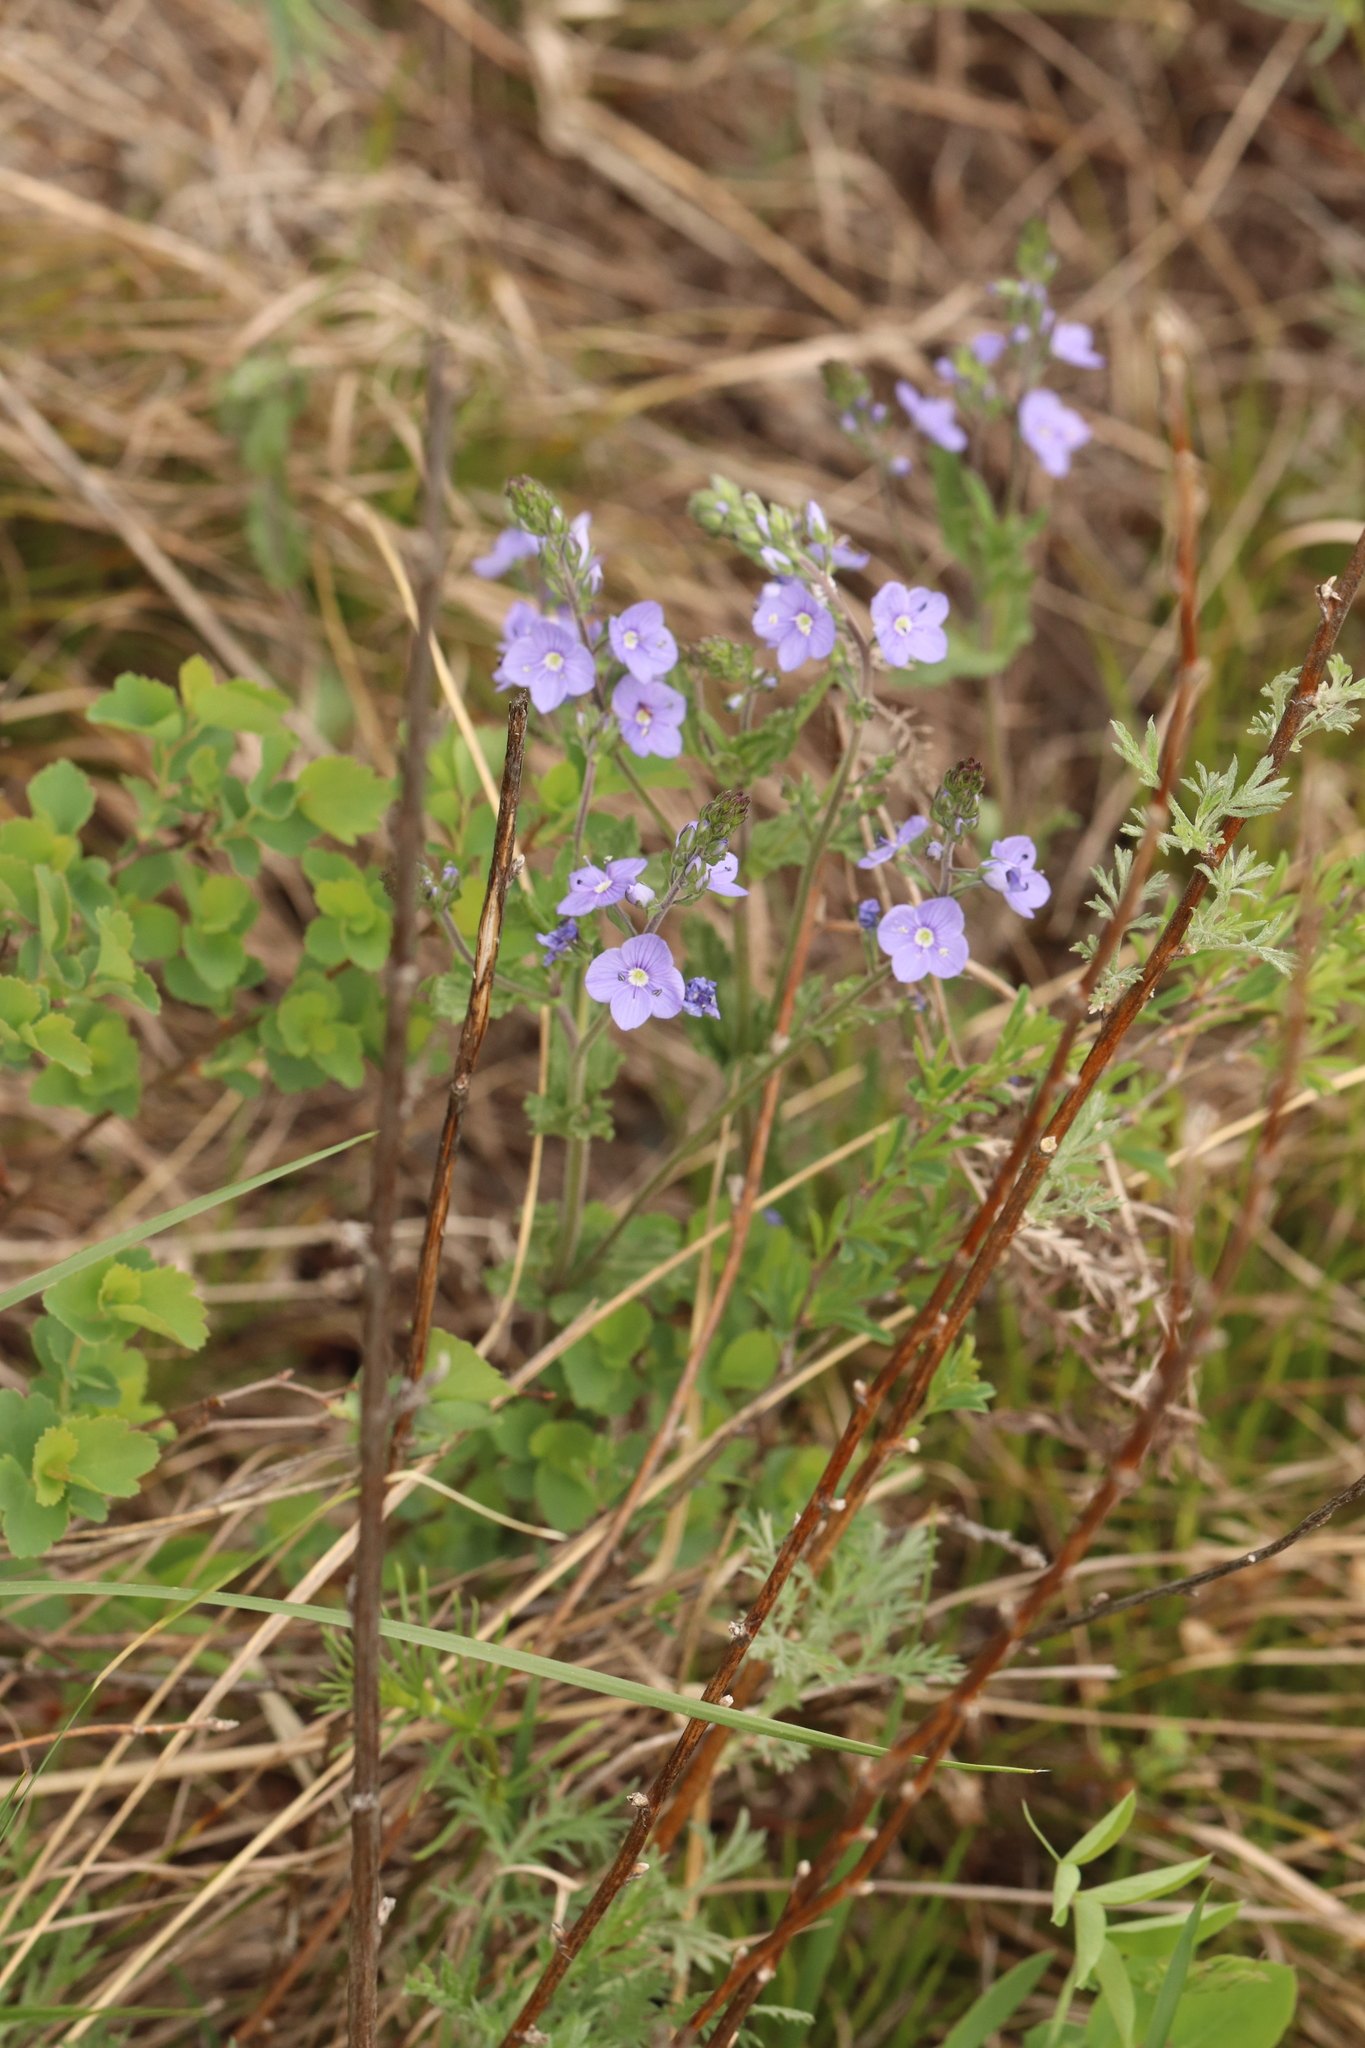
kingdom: Plantae
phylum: Tracheophyta
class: Magnoliopsida
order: Lamiales
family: Plantaginaceae
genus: Veronica
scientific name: Veronica krylovii
